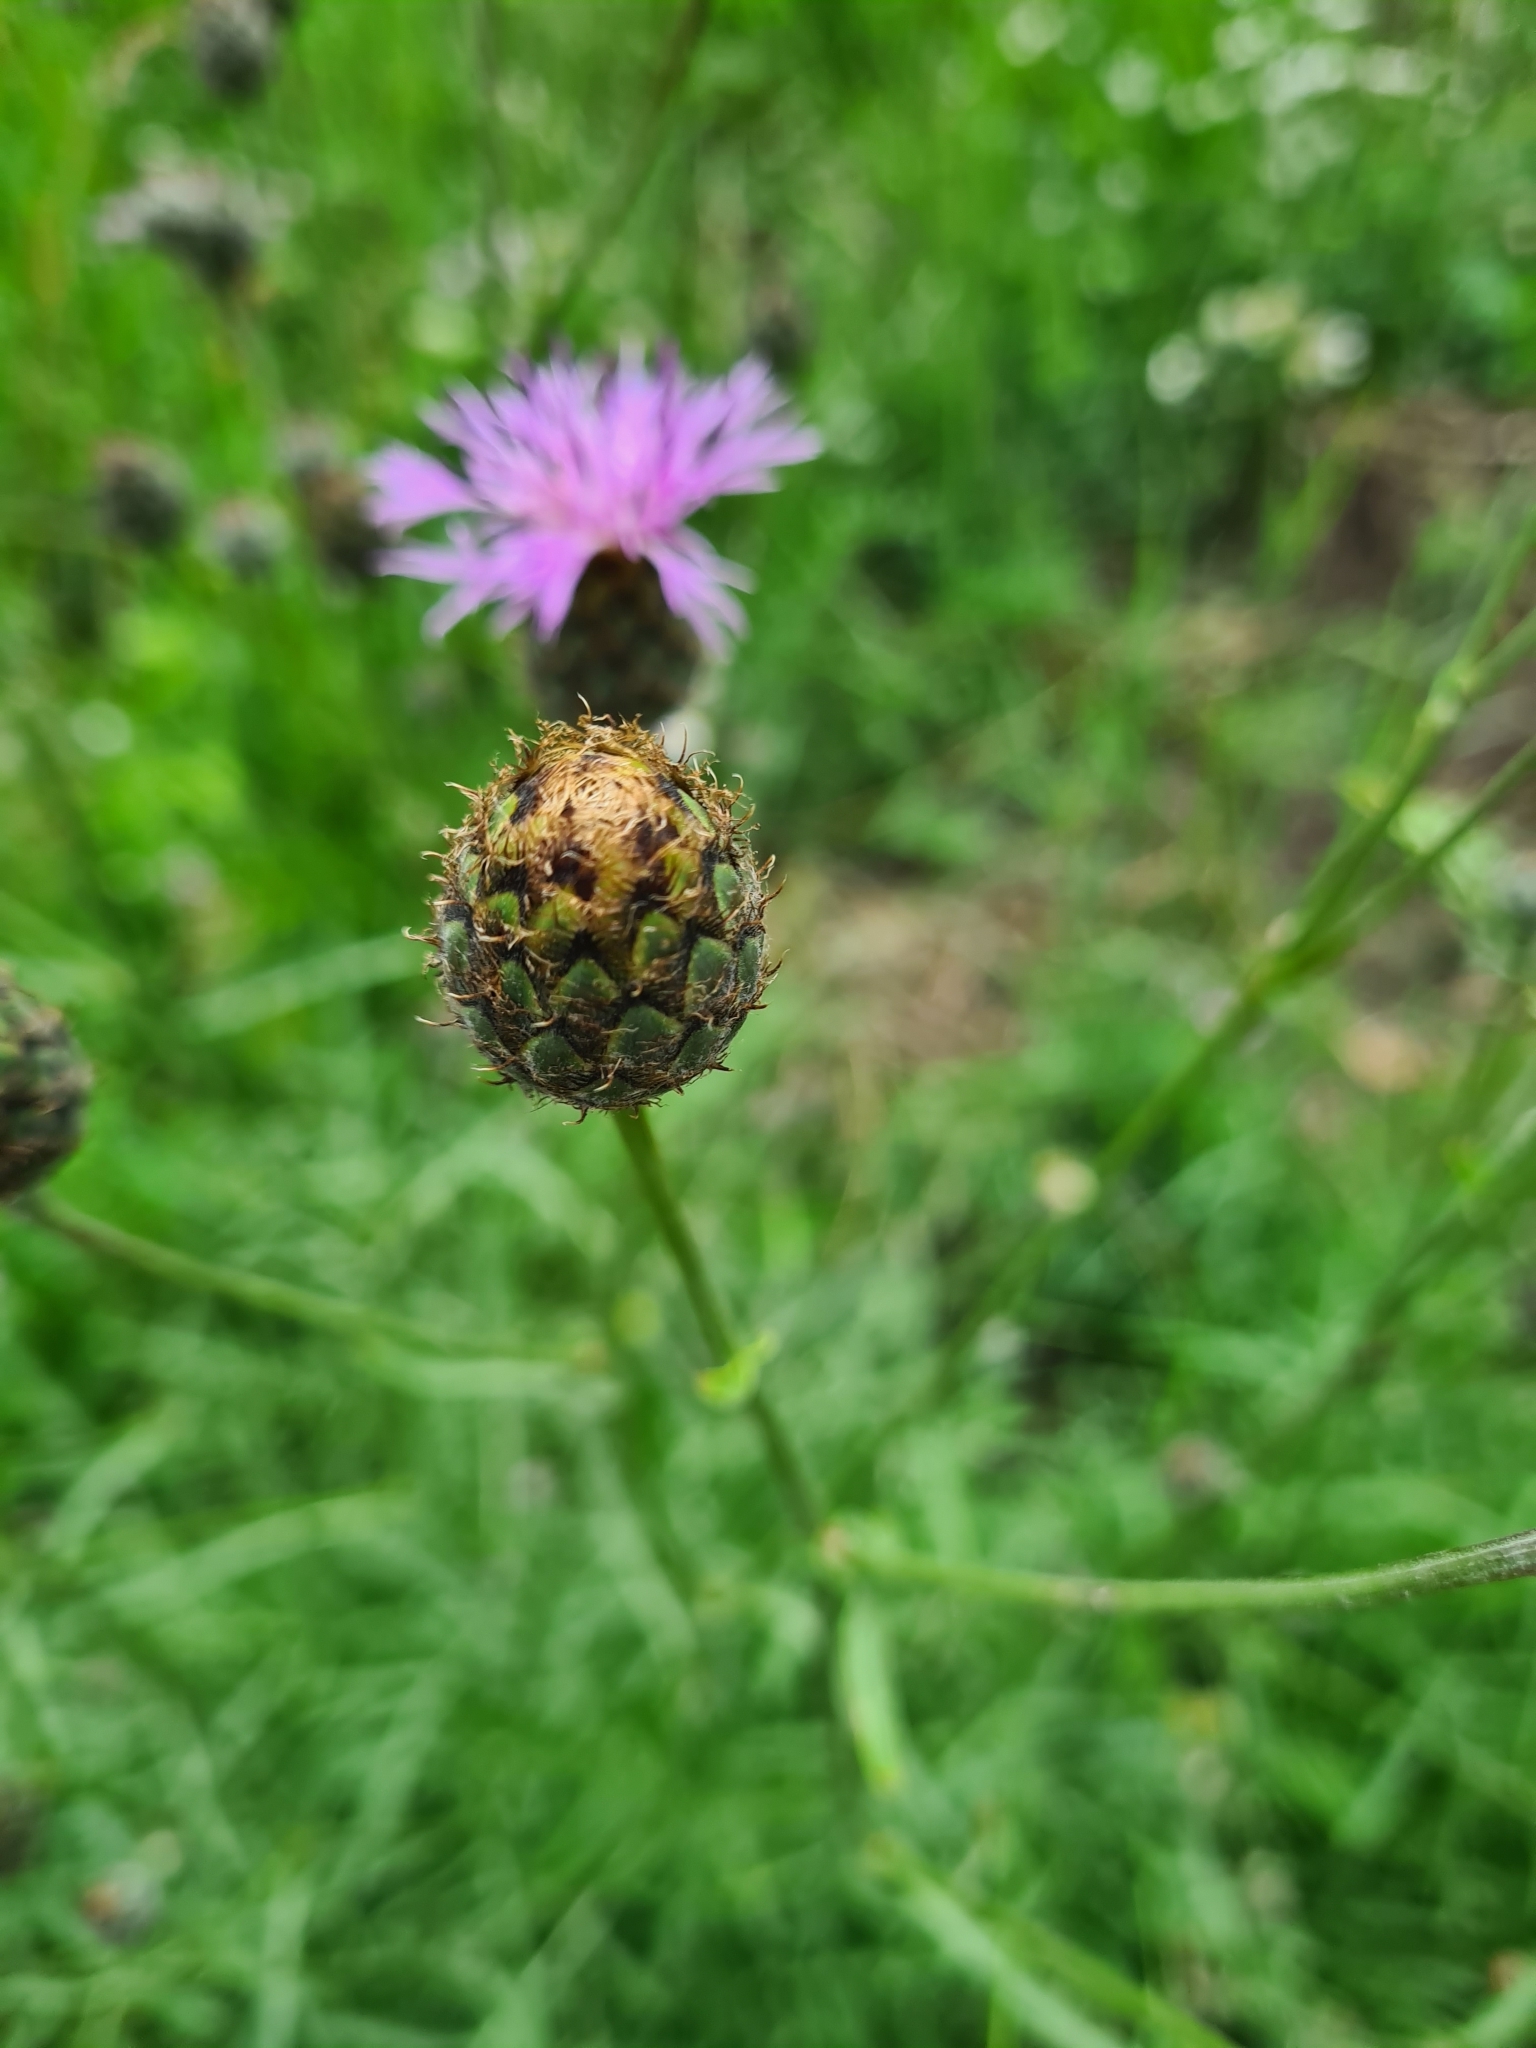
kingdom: Plantae
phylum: Tracheophyta
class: Magnoliopsida
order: Asterales
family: Asteraceae
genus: Centaurea
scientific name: Centaurea scabiosa
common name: Greater knapweed
